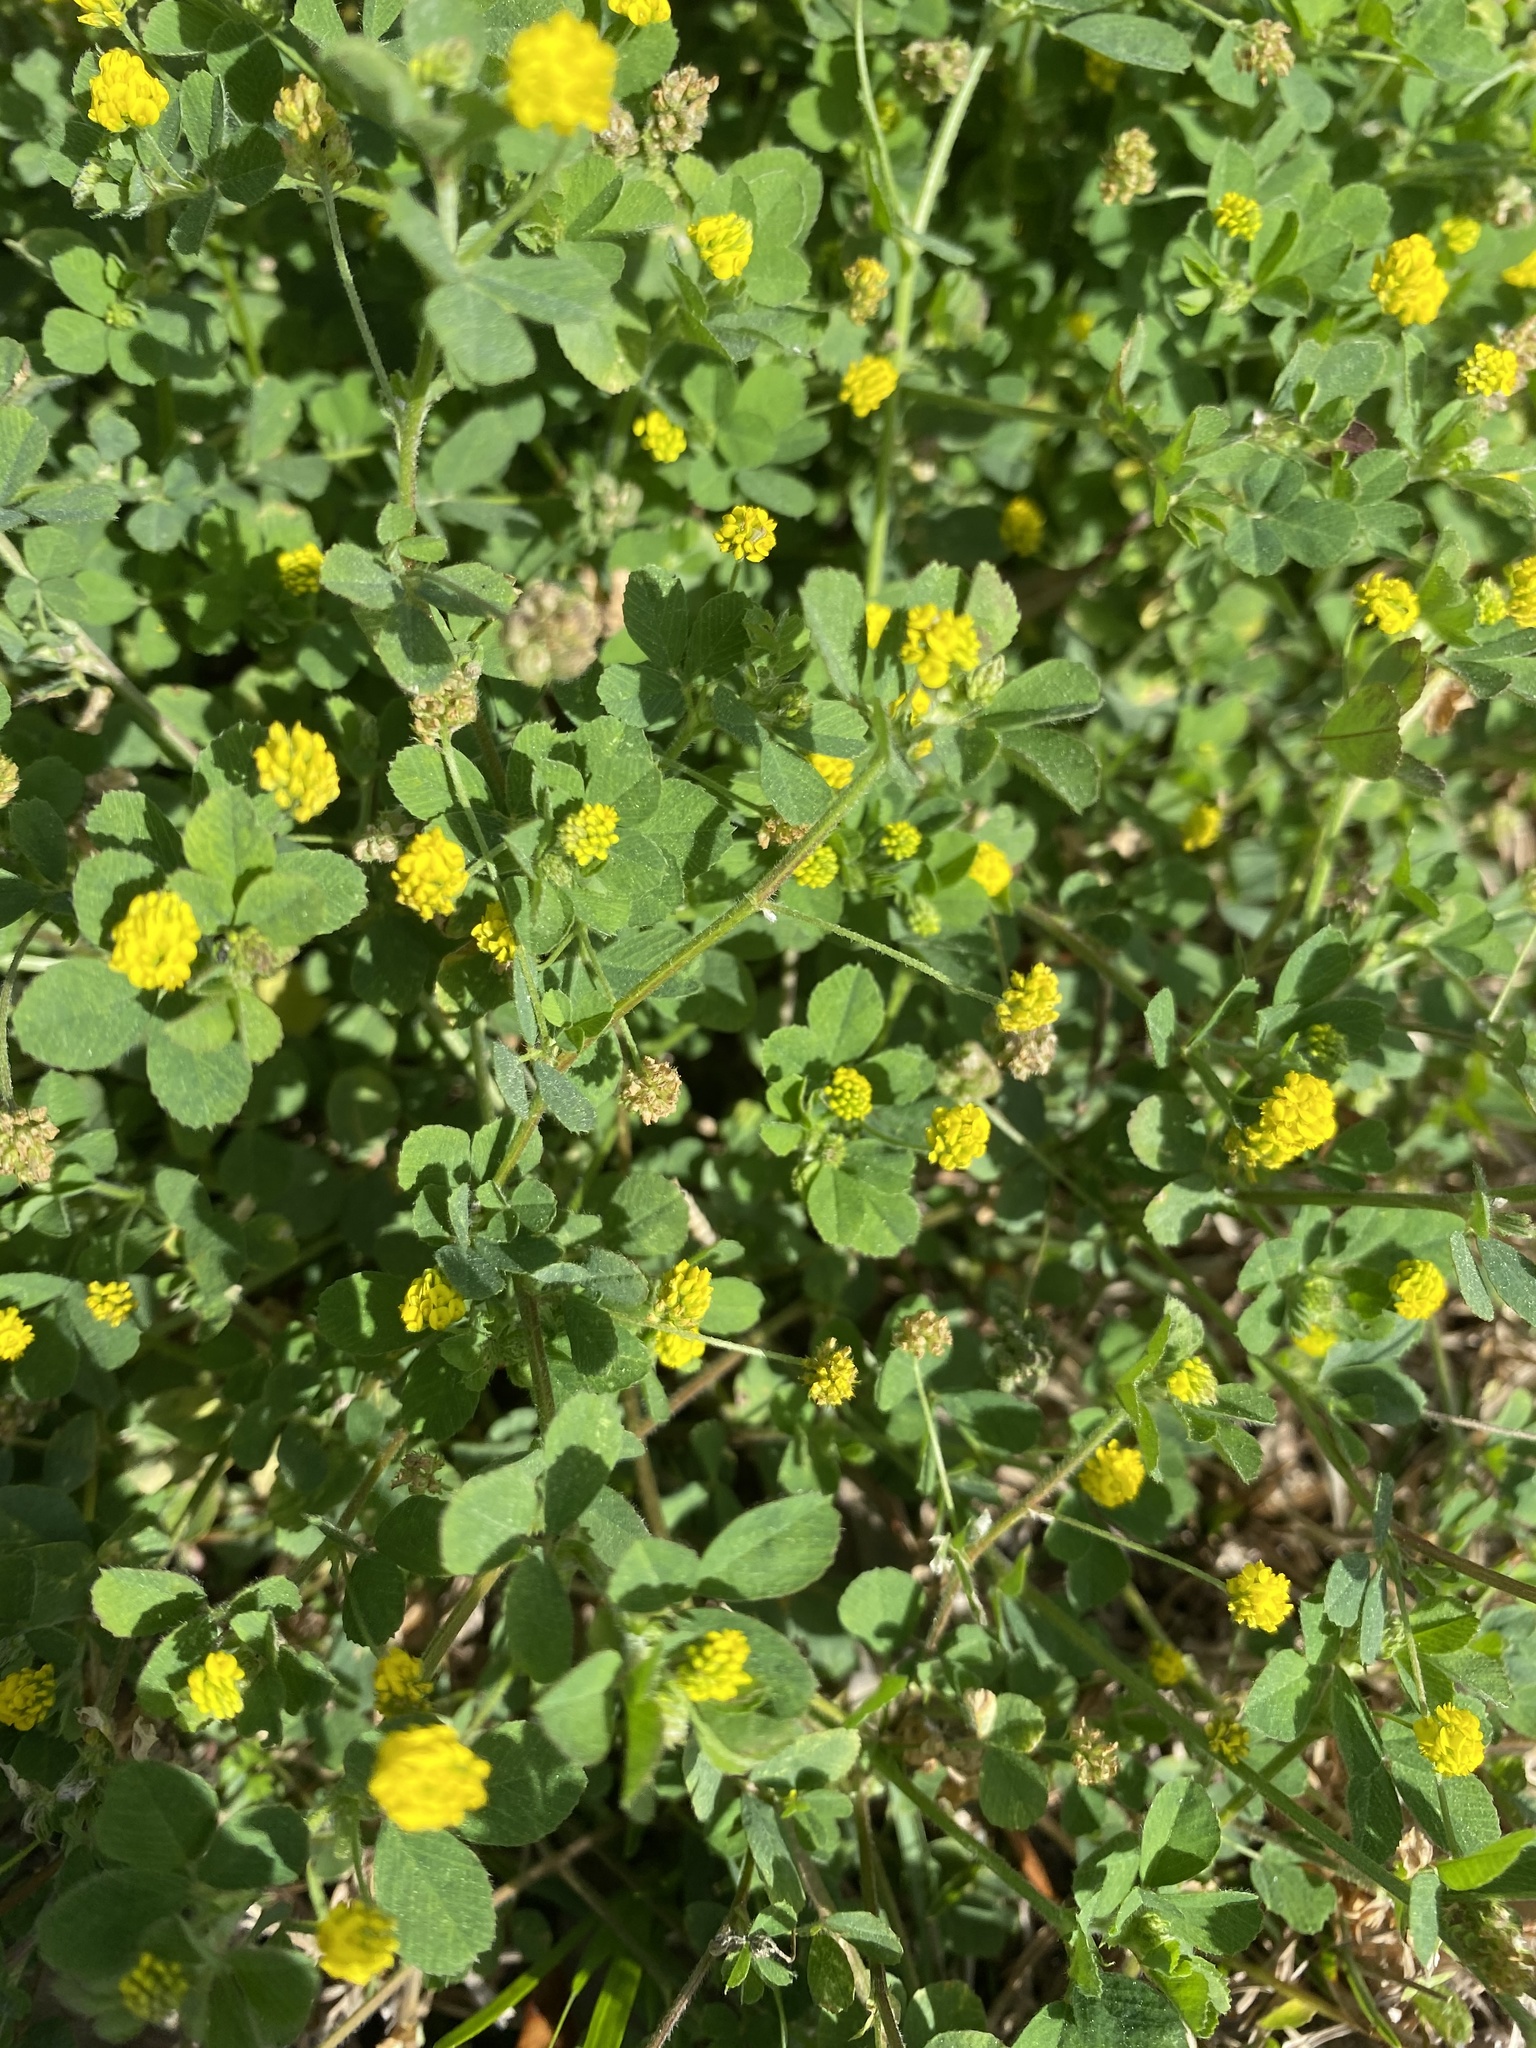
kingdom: Plantae
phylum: Tracheophyta
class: Magnoliopsida
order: Fabales
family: Fabaceae
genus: Medicago
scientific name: Medicago lupulina
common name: Black medick
